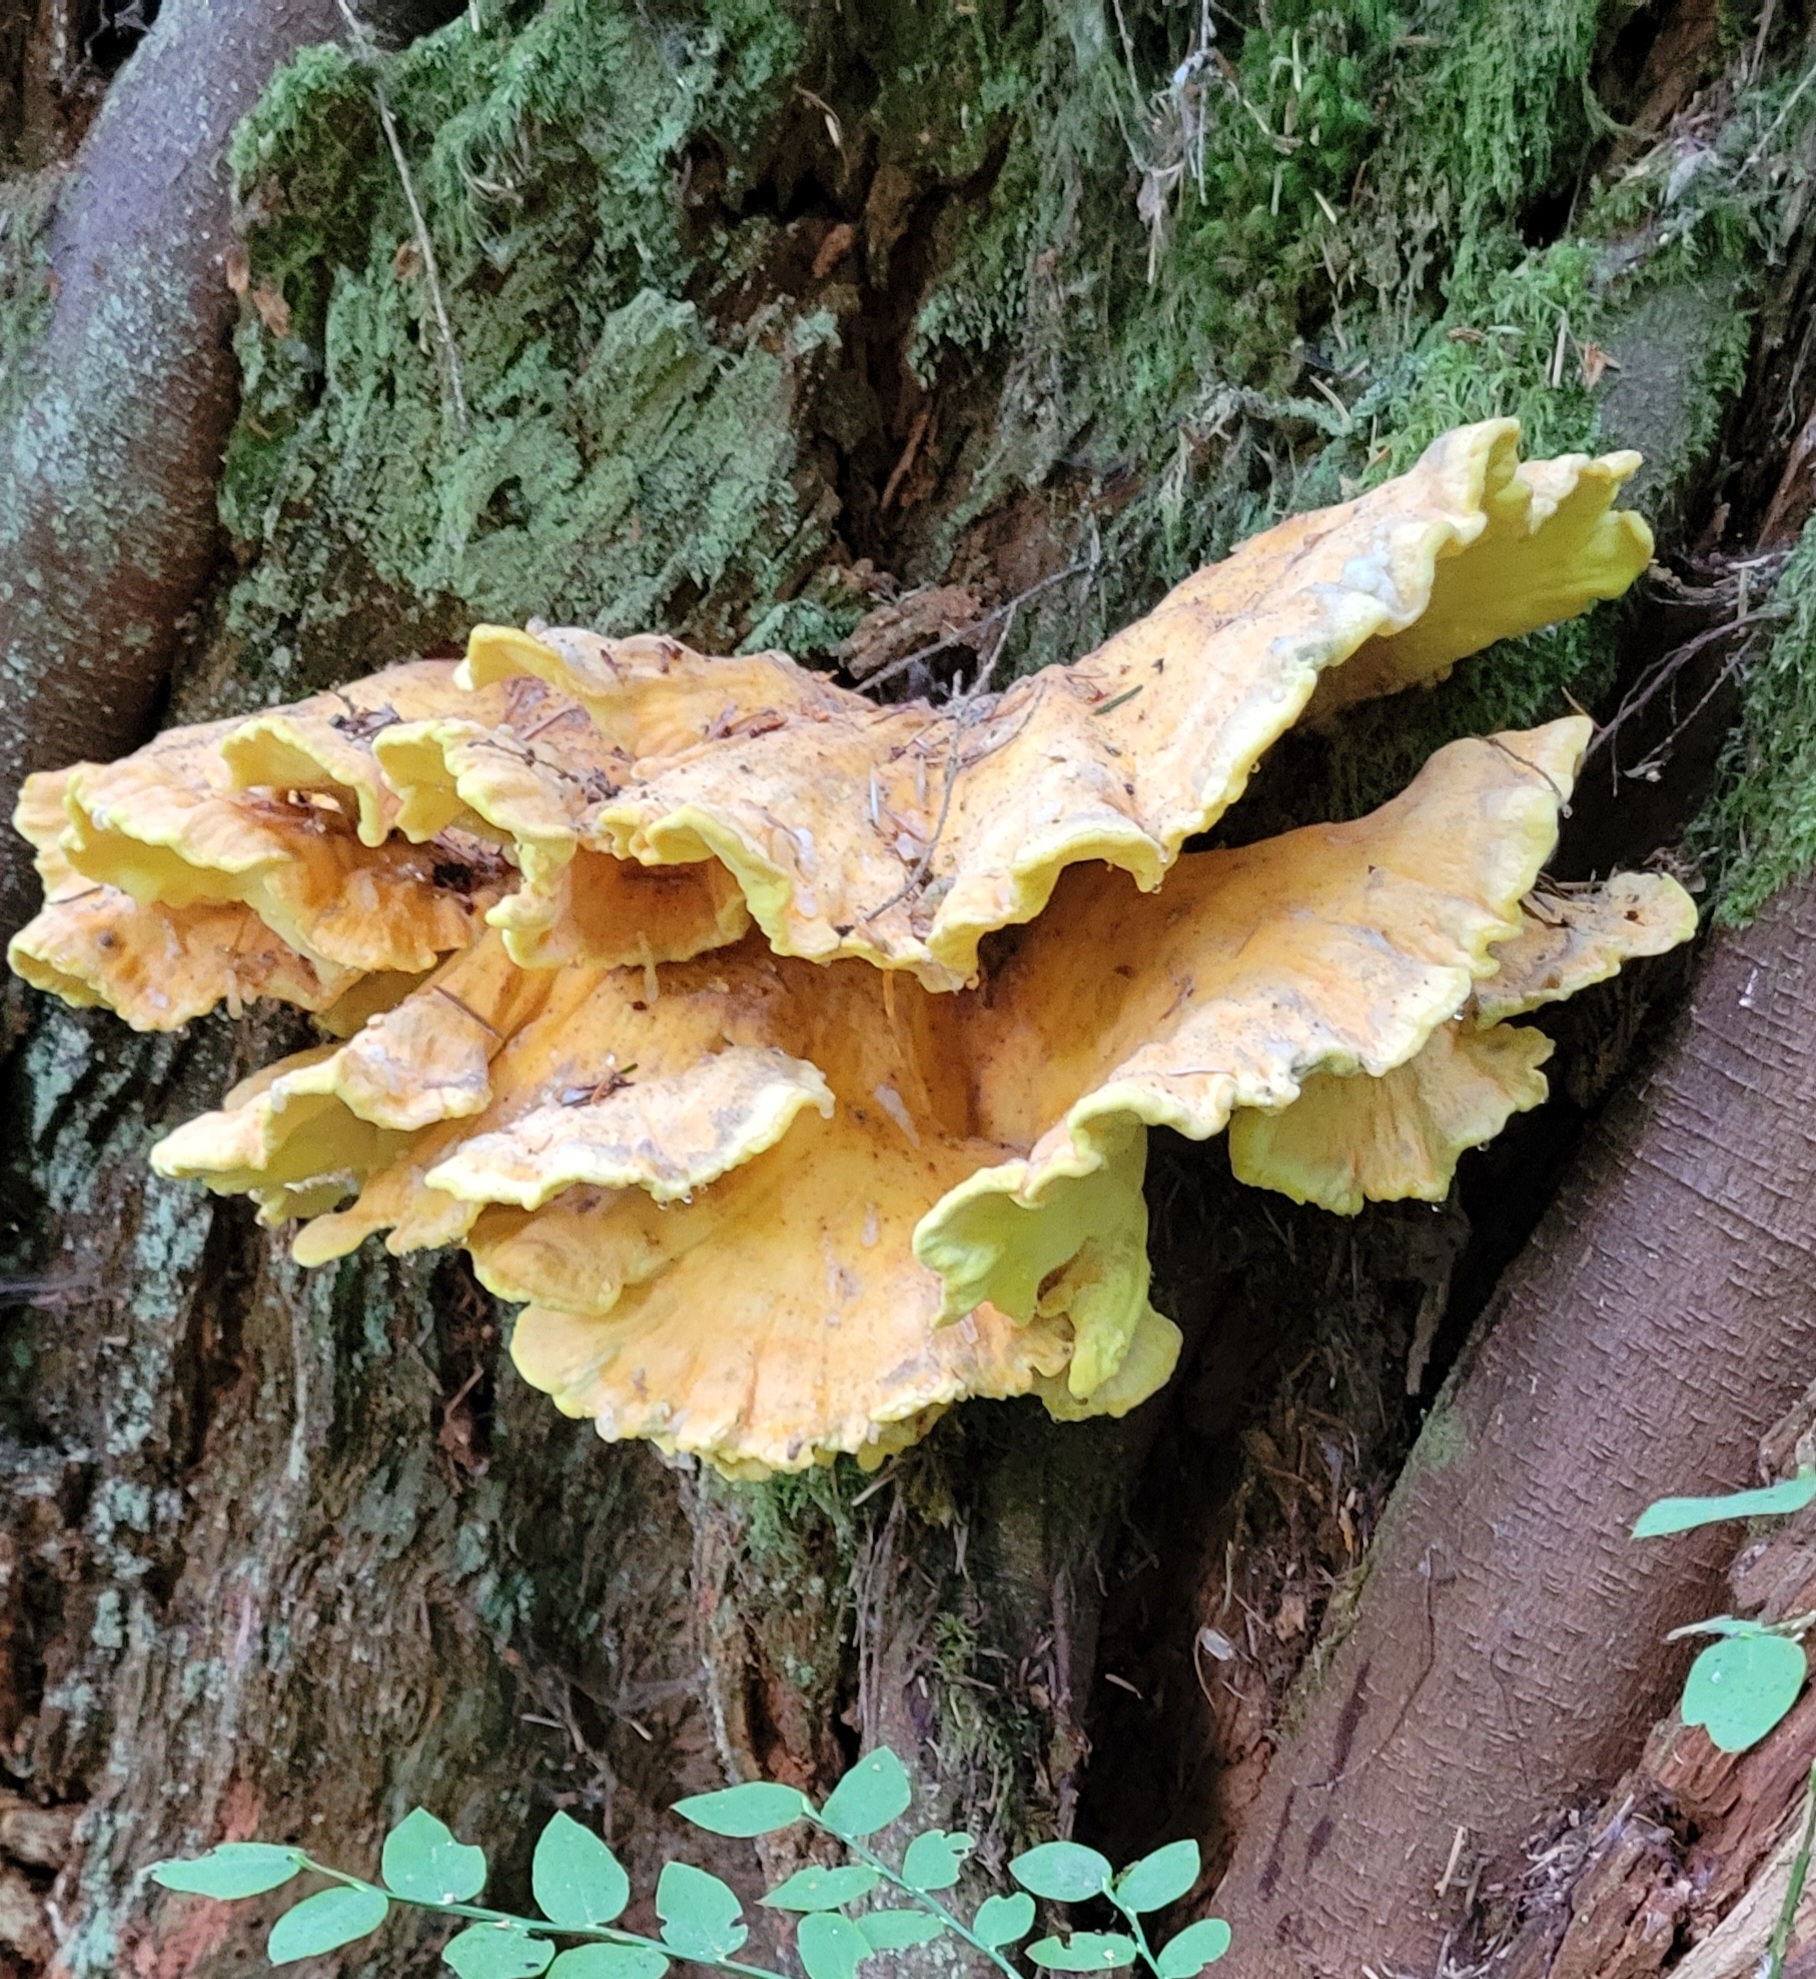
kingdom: Fungi
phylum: Basidiomycota
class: Agaricomycetes
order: Polyporales
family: Laetiporaceae
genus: Laetiporus
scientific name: Laetiporus conifericola
